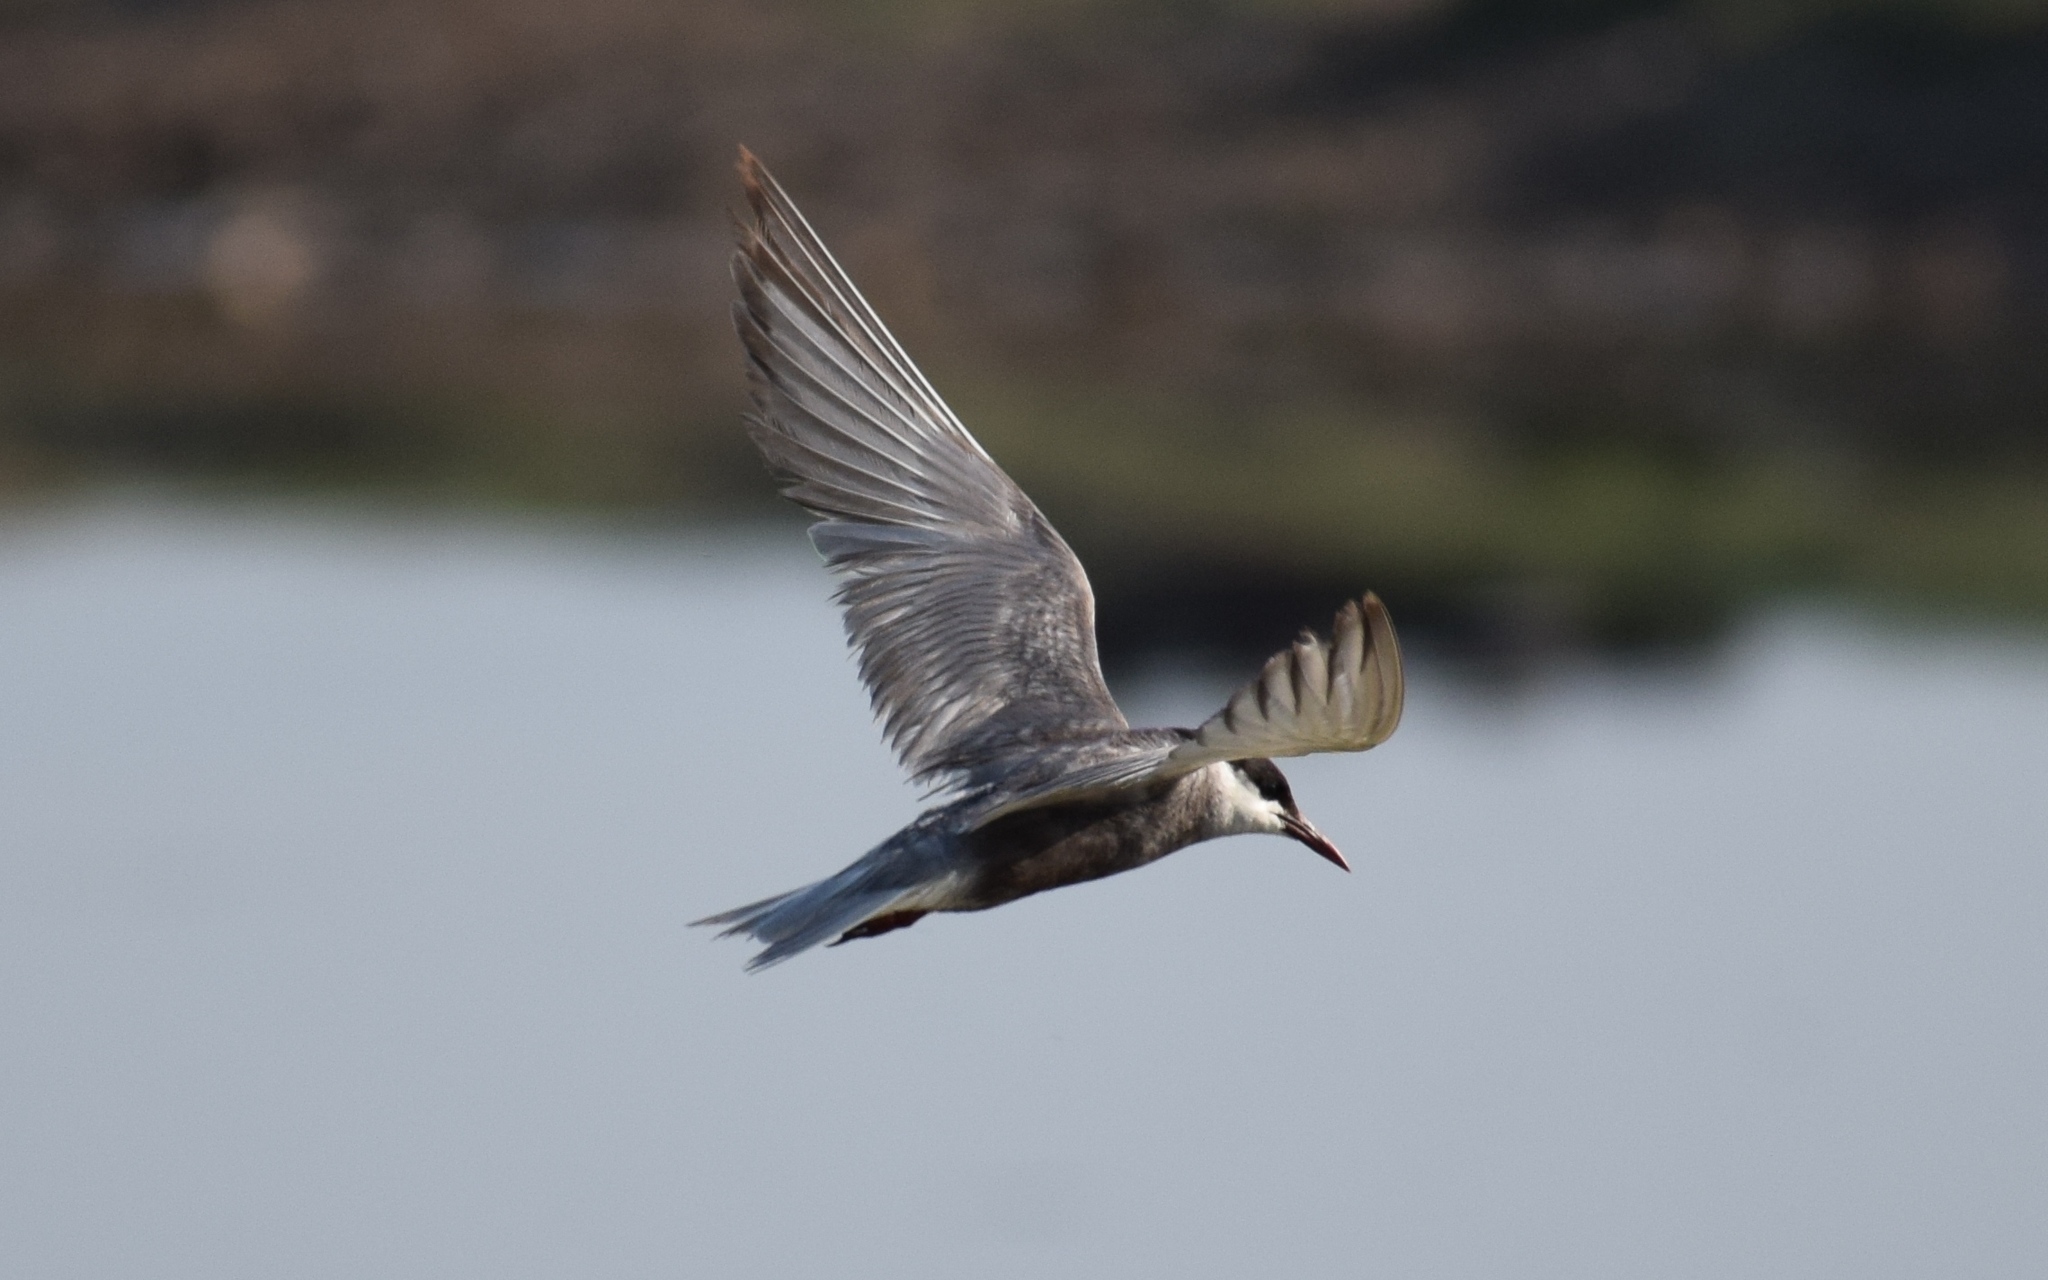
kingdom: Animalia
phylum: Chordata
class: Aves
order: Charadriiformes
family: Laridae
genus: Chlidonias
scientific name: Chlidonias hybrida
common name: Whiskered tern
